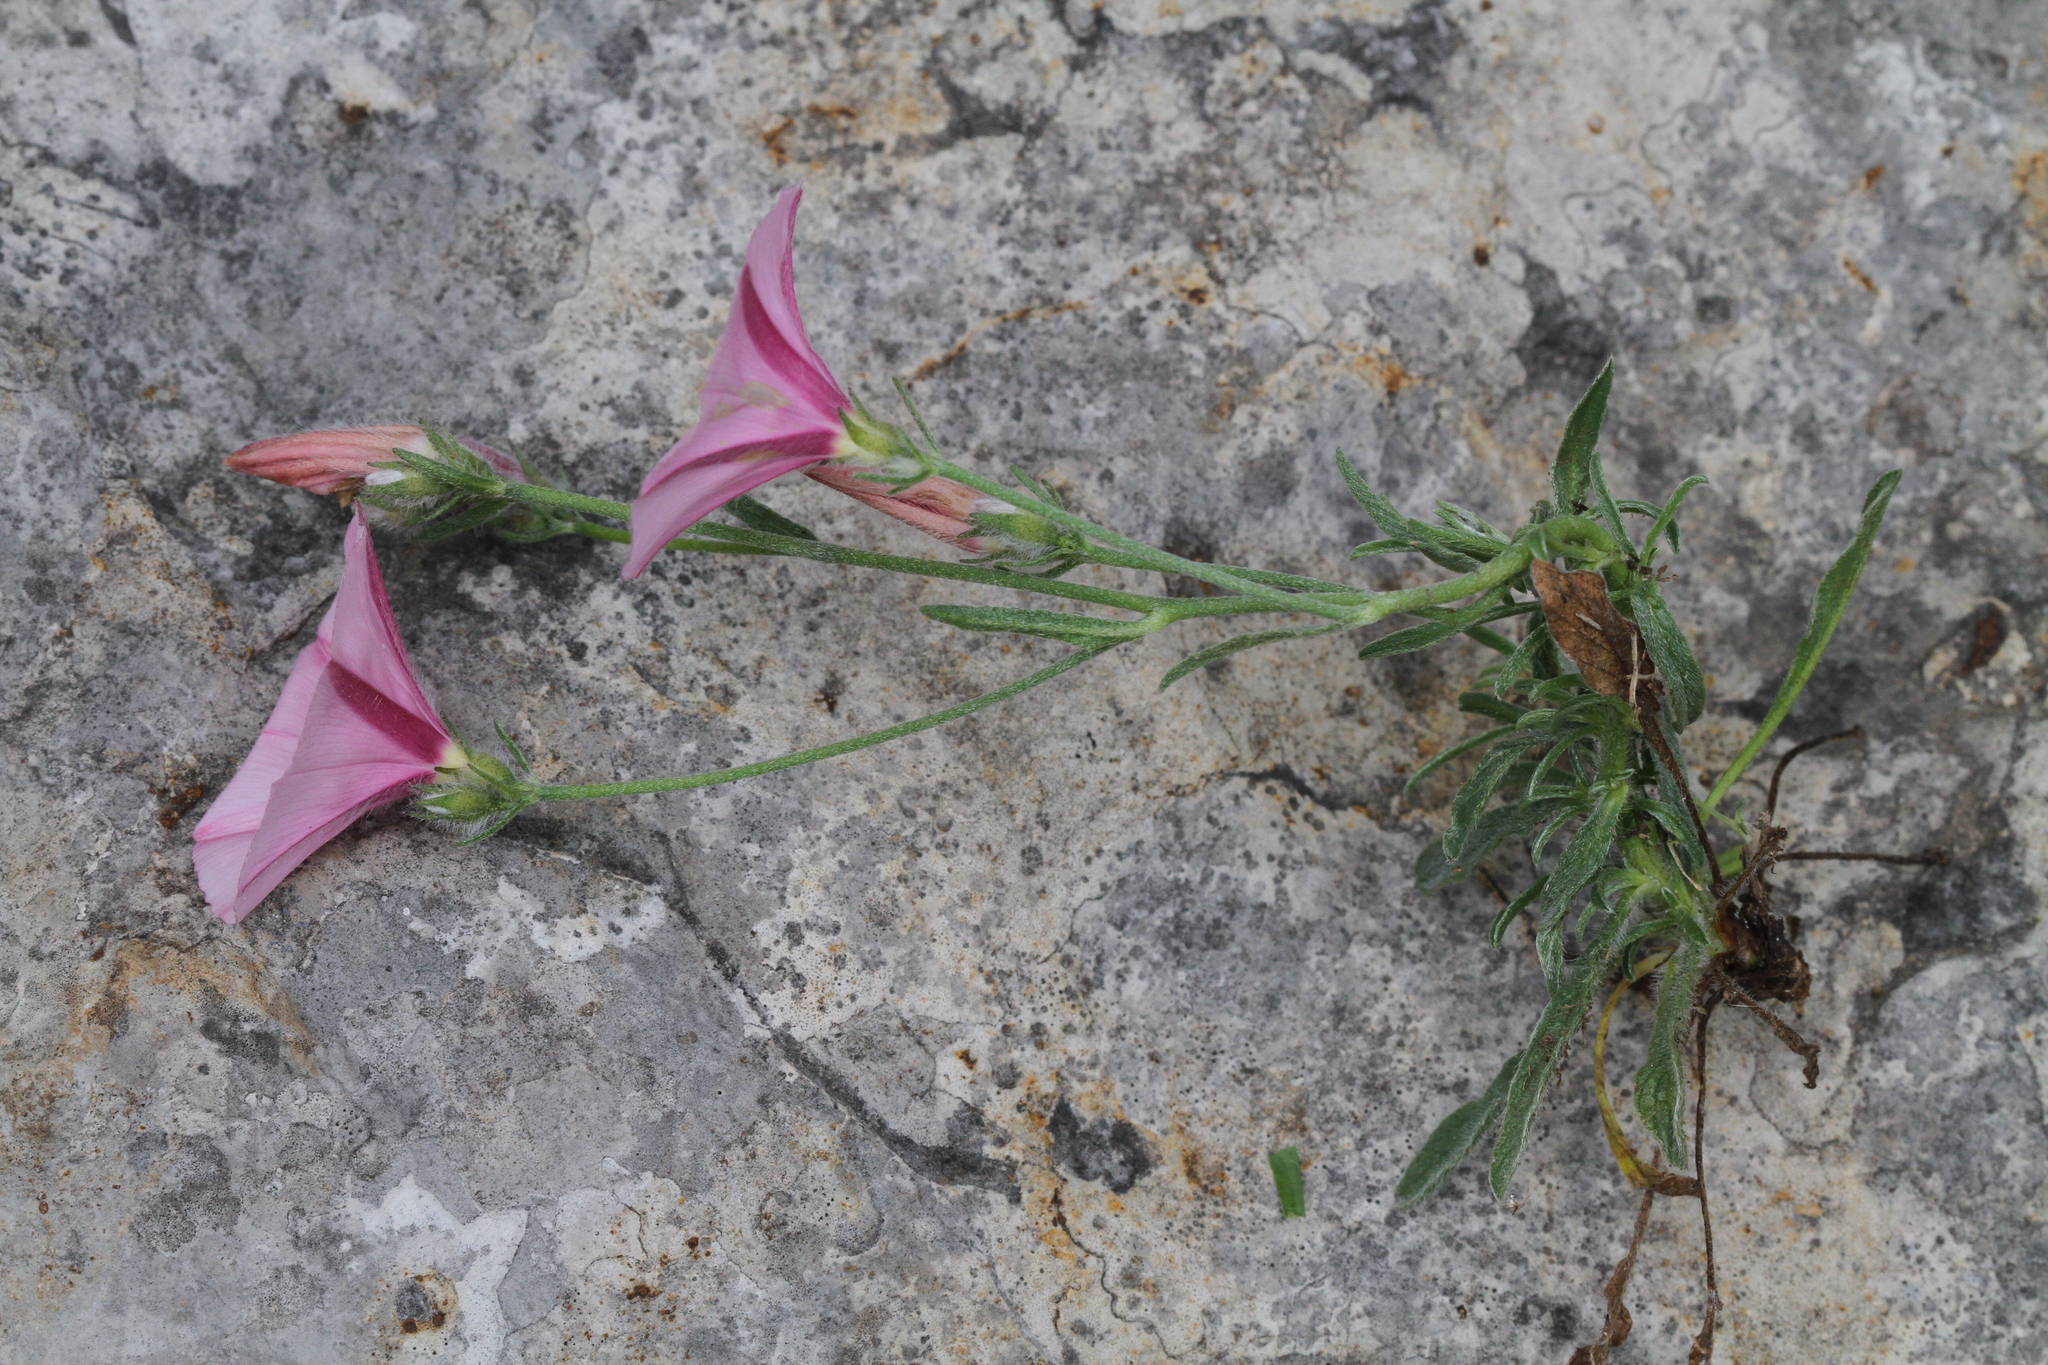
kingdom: Plantae
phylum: Tracheophyta
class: Magnoliopsida
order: Solanales
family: Convolvulaceae
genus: Convolvulus
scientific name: Convolvulus cantabrica
